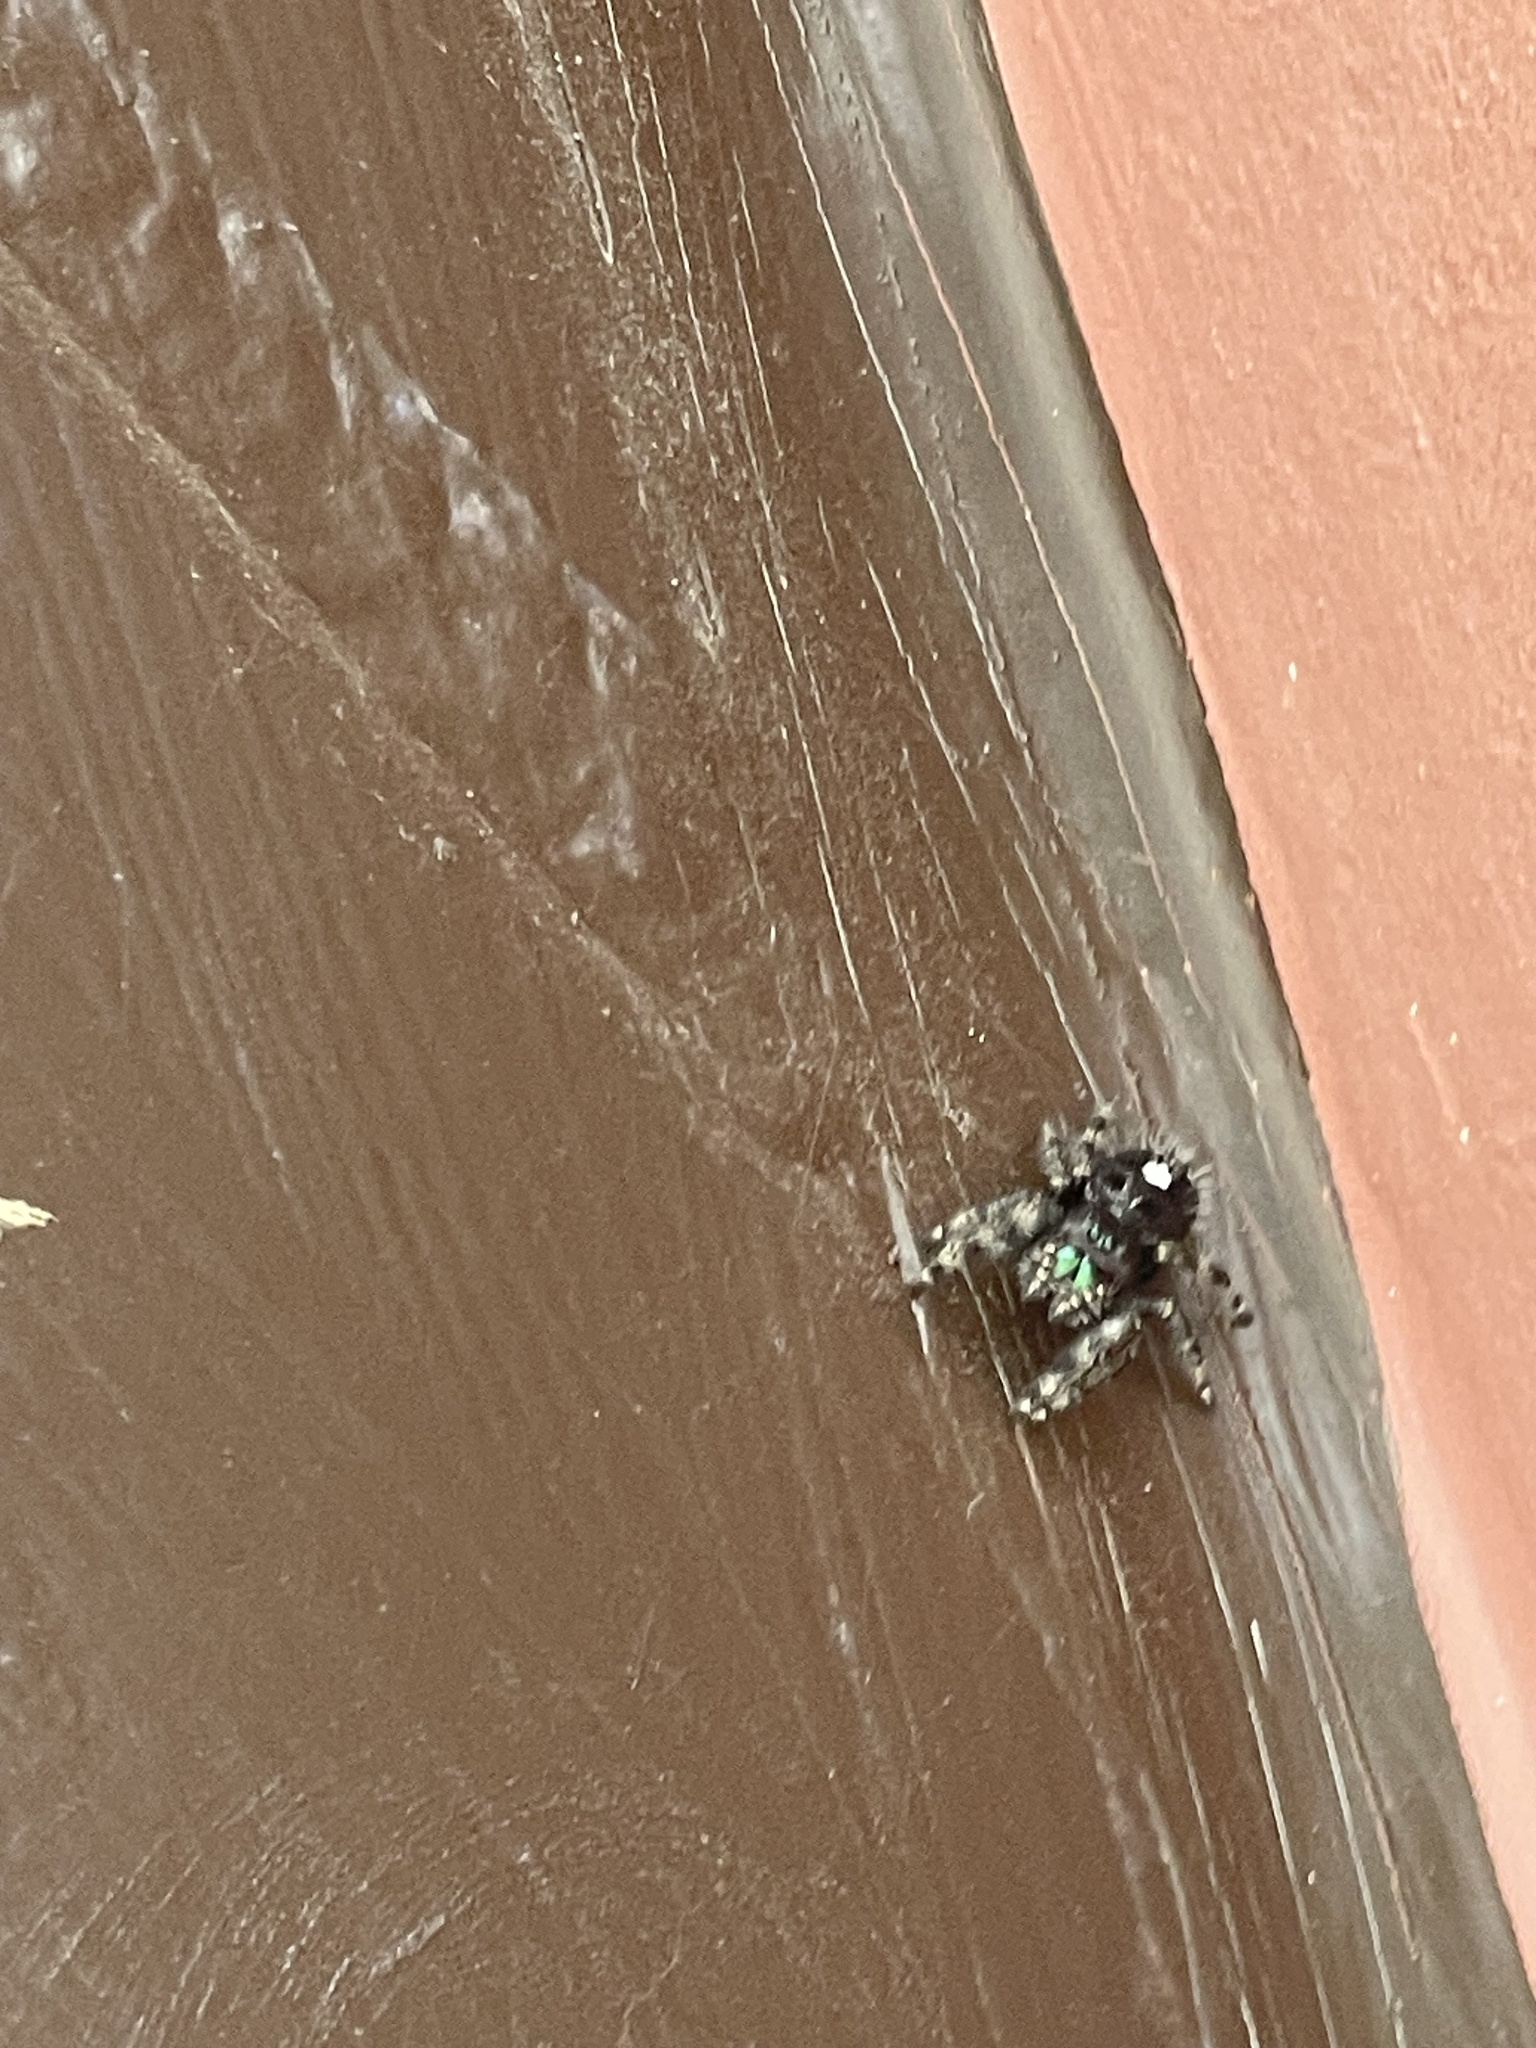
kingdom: Animalia
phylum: Arthropoda
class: Arachnida
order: Araneae
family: Salticidae
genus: Phidippus
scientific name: Phidippus audax
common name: Bold jumper
